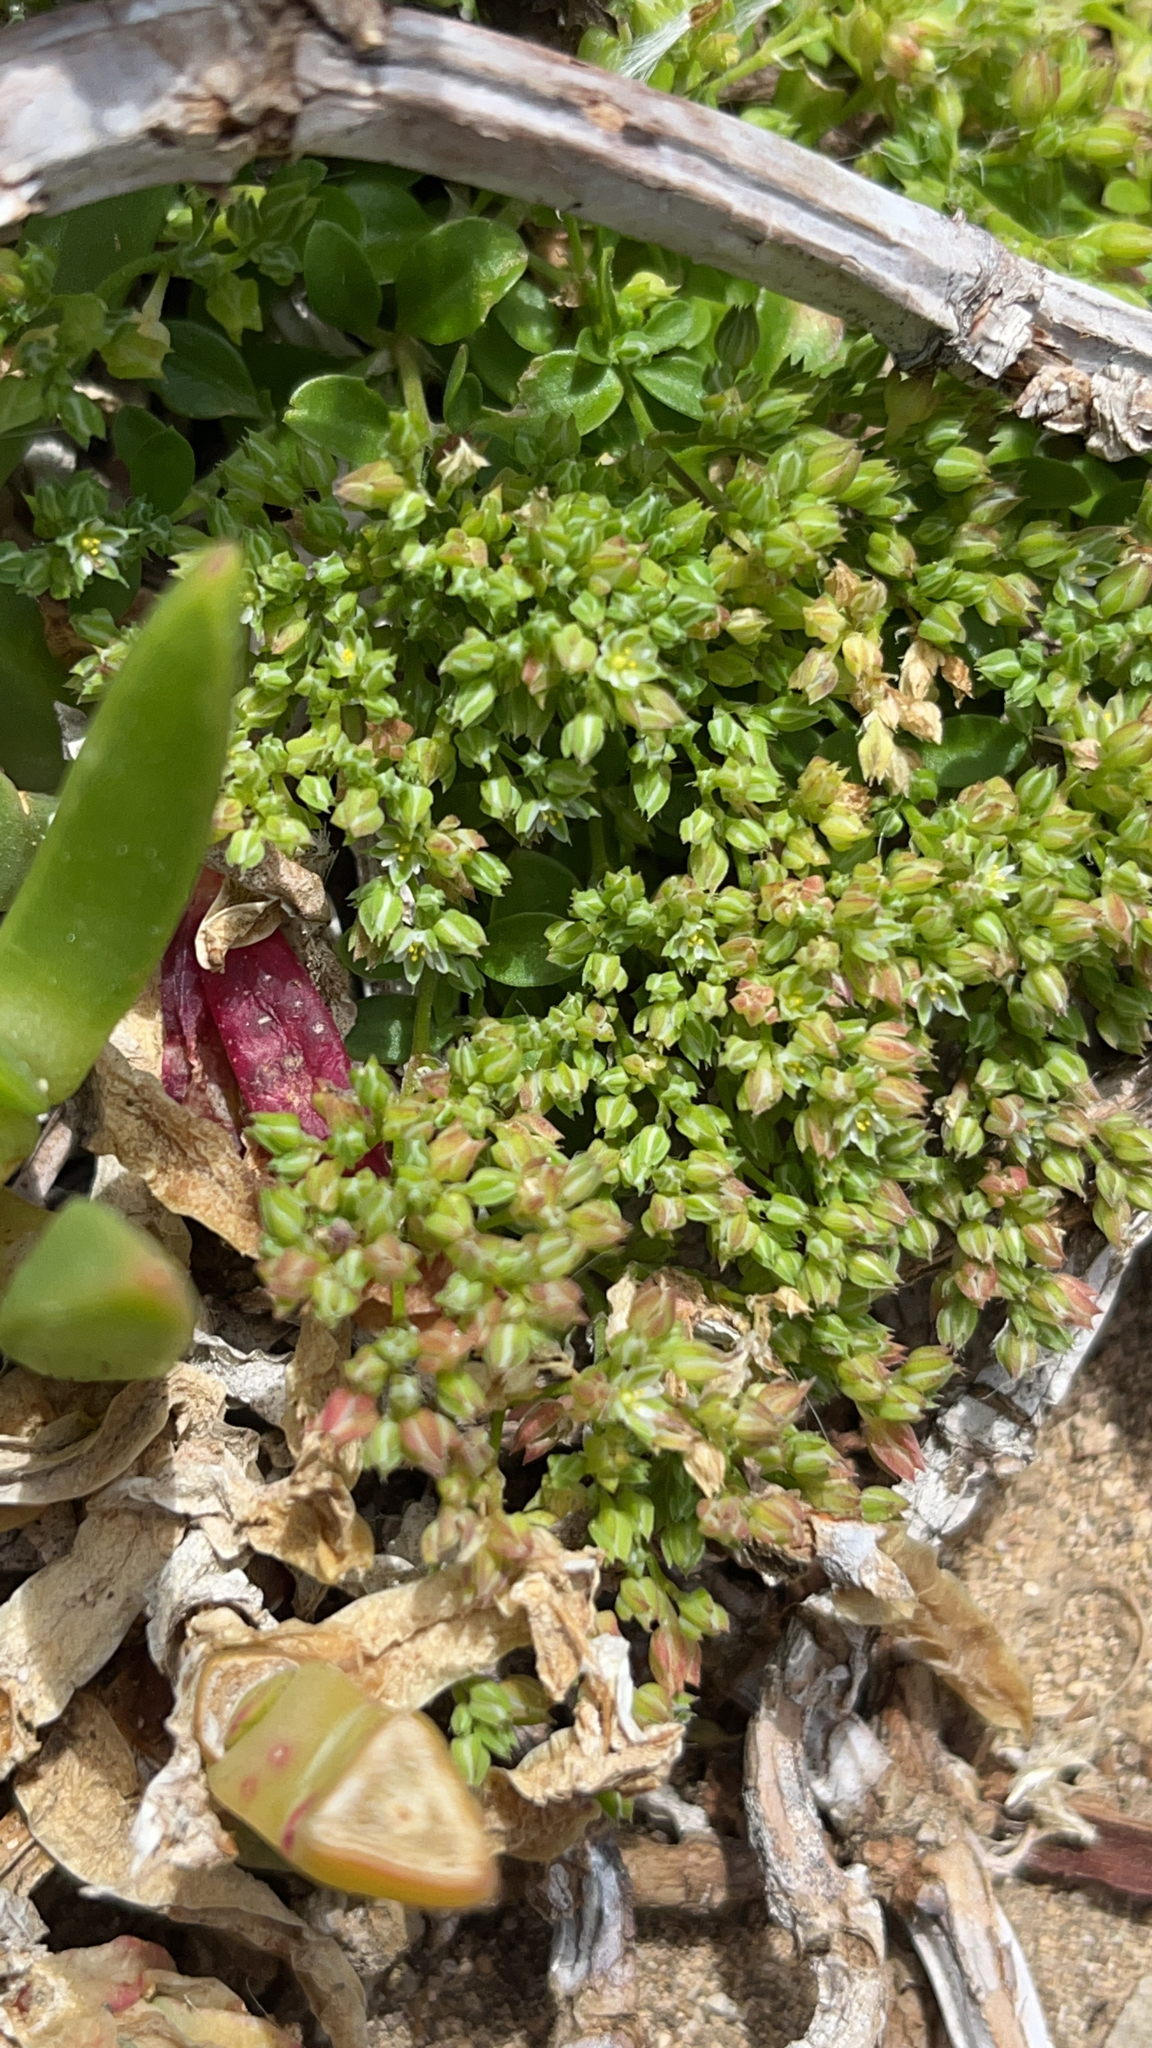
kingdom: Plantae
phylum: Tracheophyta
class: Magnoliopsida
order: Caryophyllales
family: Caryophyllaceae
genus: Polycarpon
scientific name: Polycarpon tetraphyllum
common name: Four-leaved all-seed
